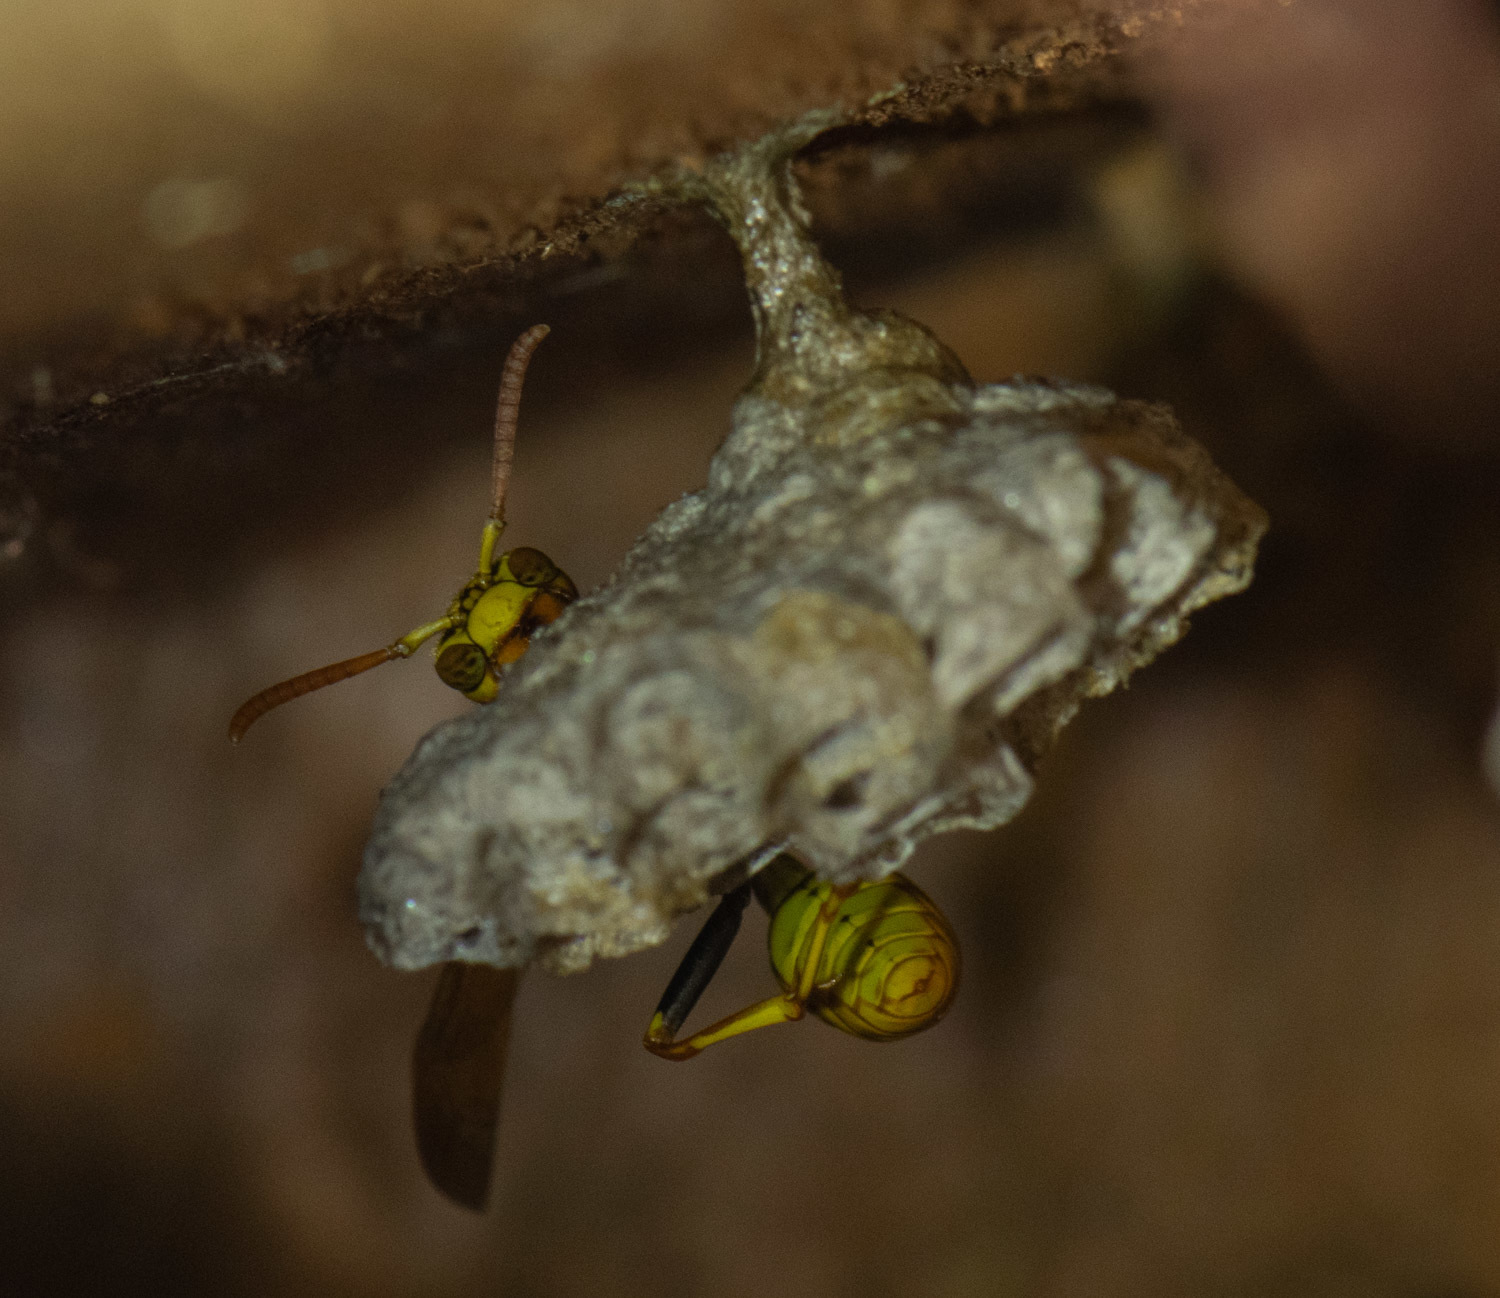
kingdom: Animalia
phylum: Arthropoda
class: Insecta
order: Hymenoptera
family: Vespidae
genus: Mischocyttarus
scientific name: Mischocyttarus flavitarsis
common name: Wasp
